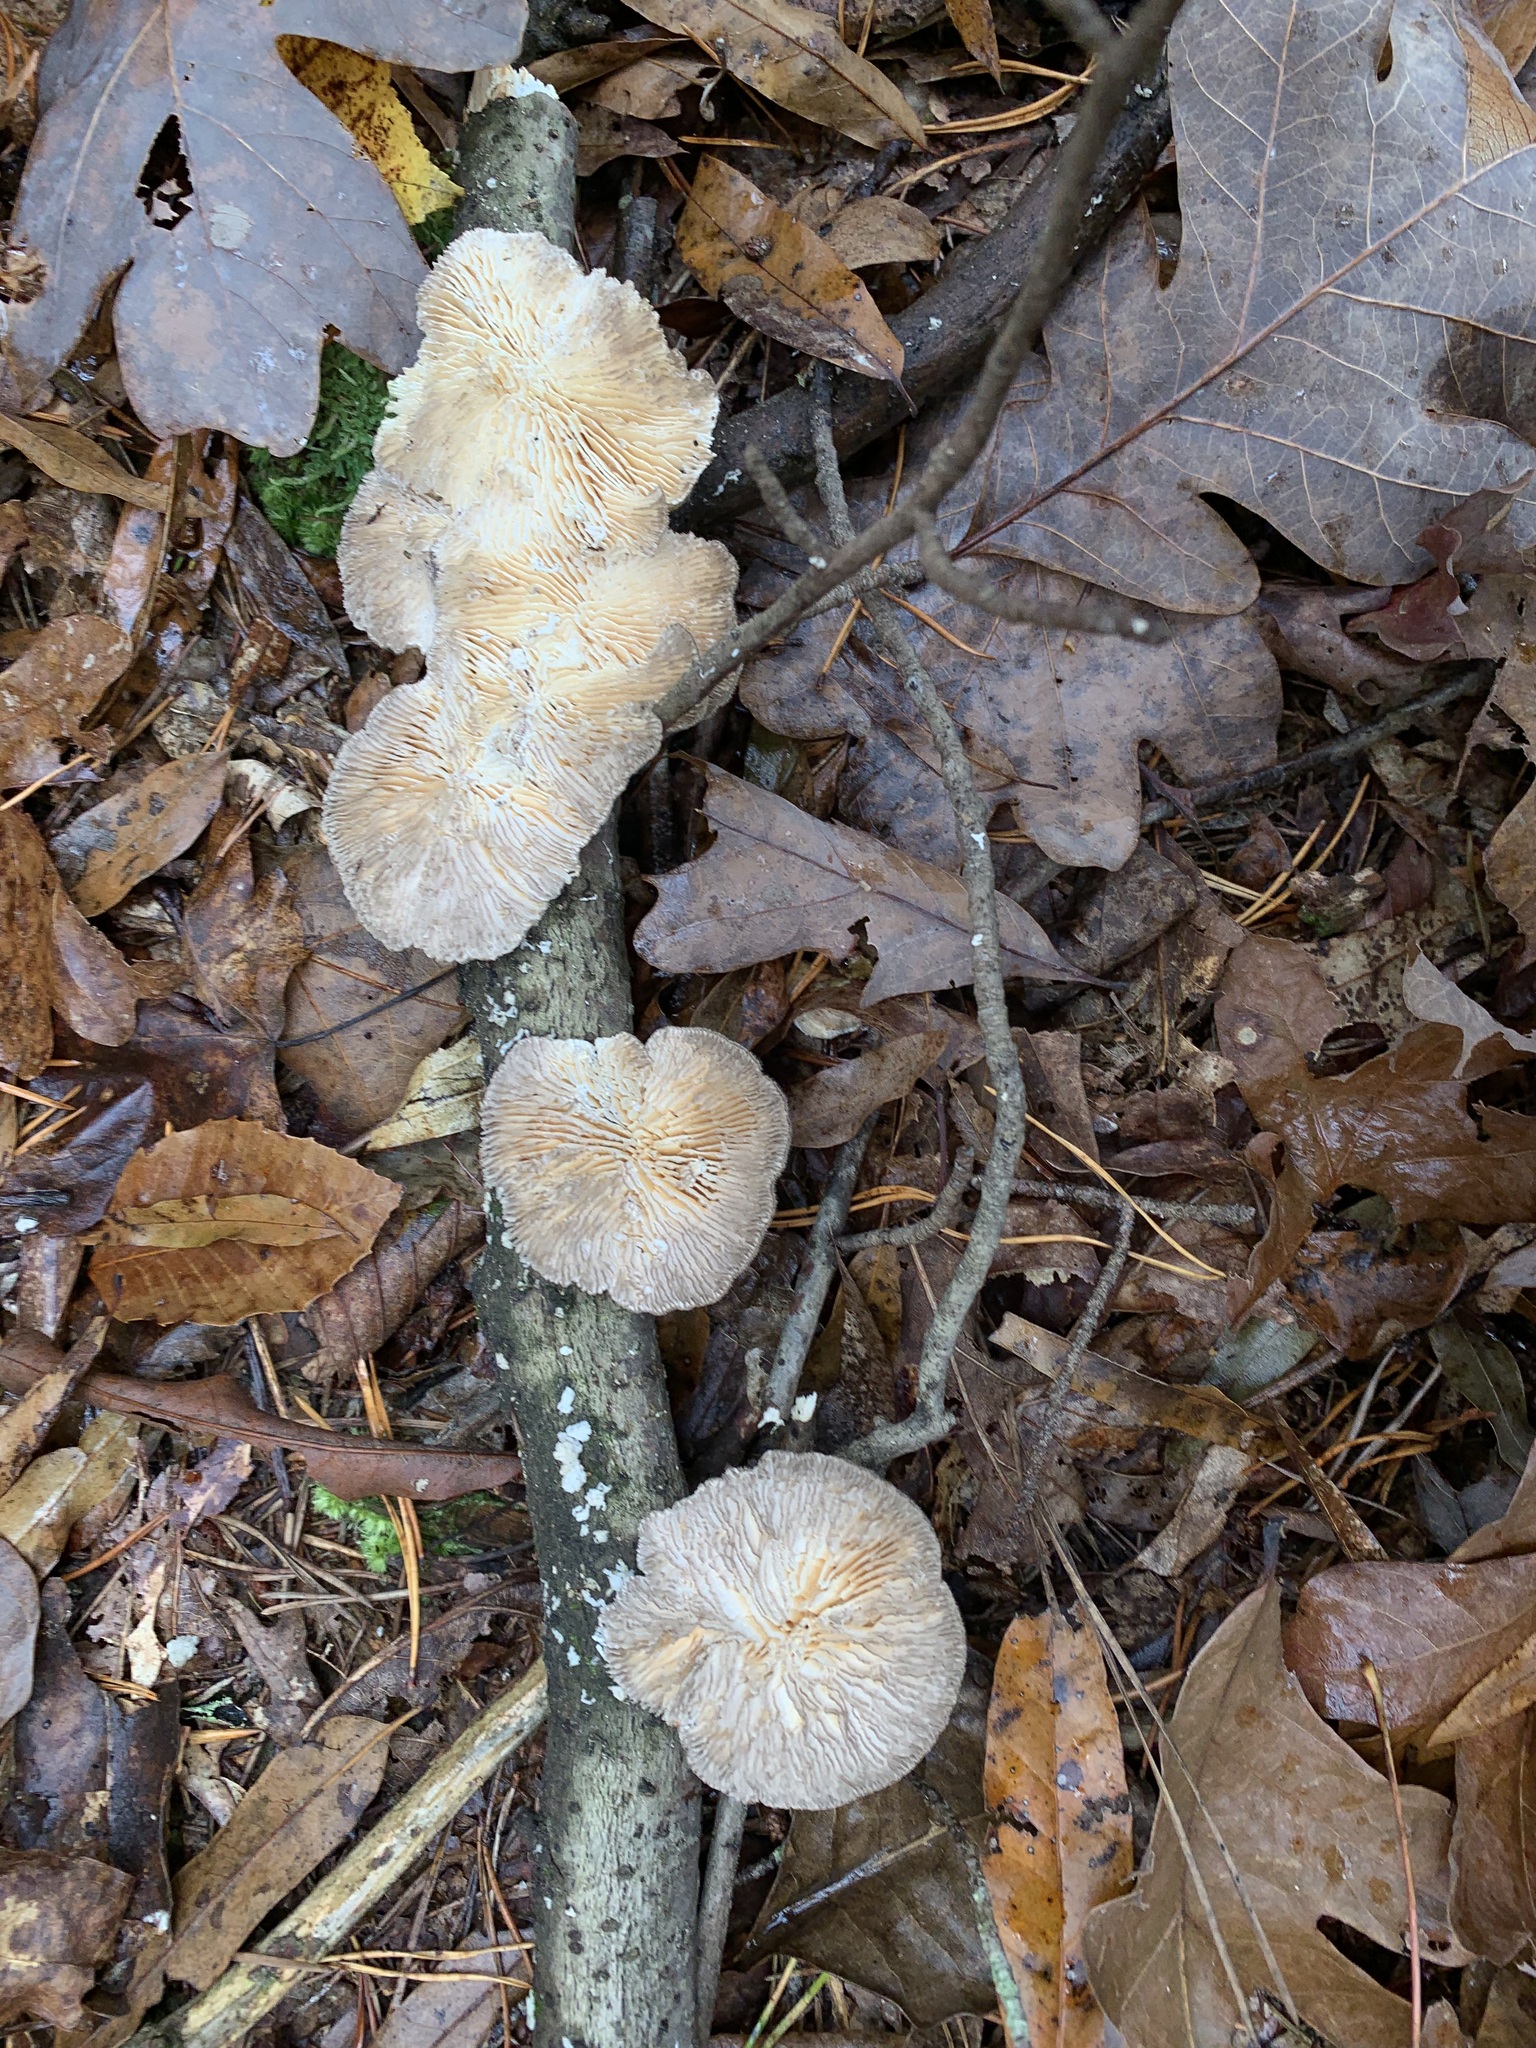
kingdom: Fungi
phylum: Basidiomycota
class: Agaricomycetes
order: Polyporales
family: Polyporaceae
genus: Lenzites
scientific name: Lenzites betulinus
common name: Birch mazegill
